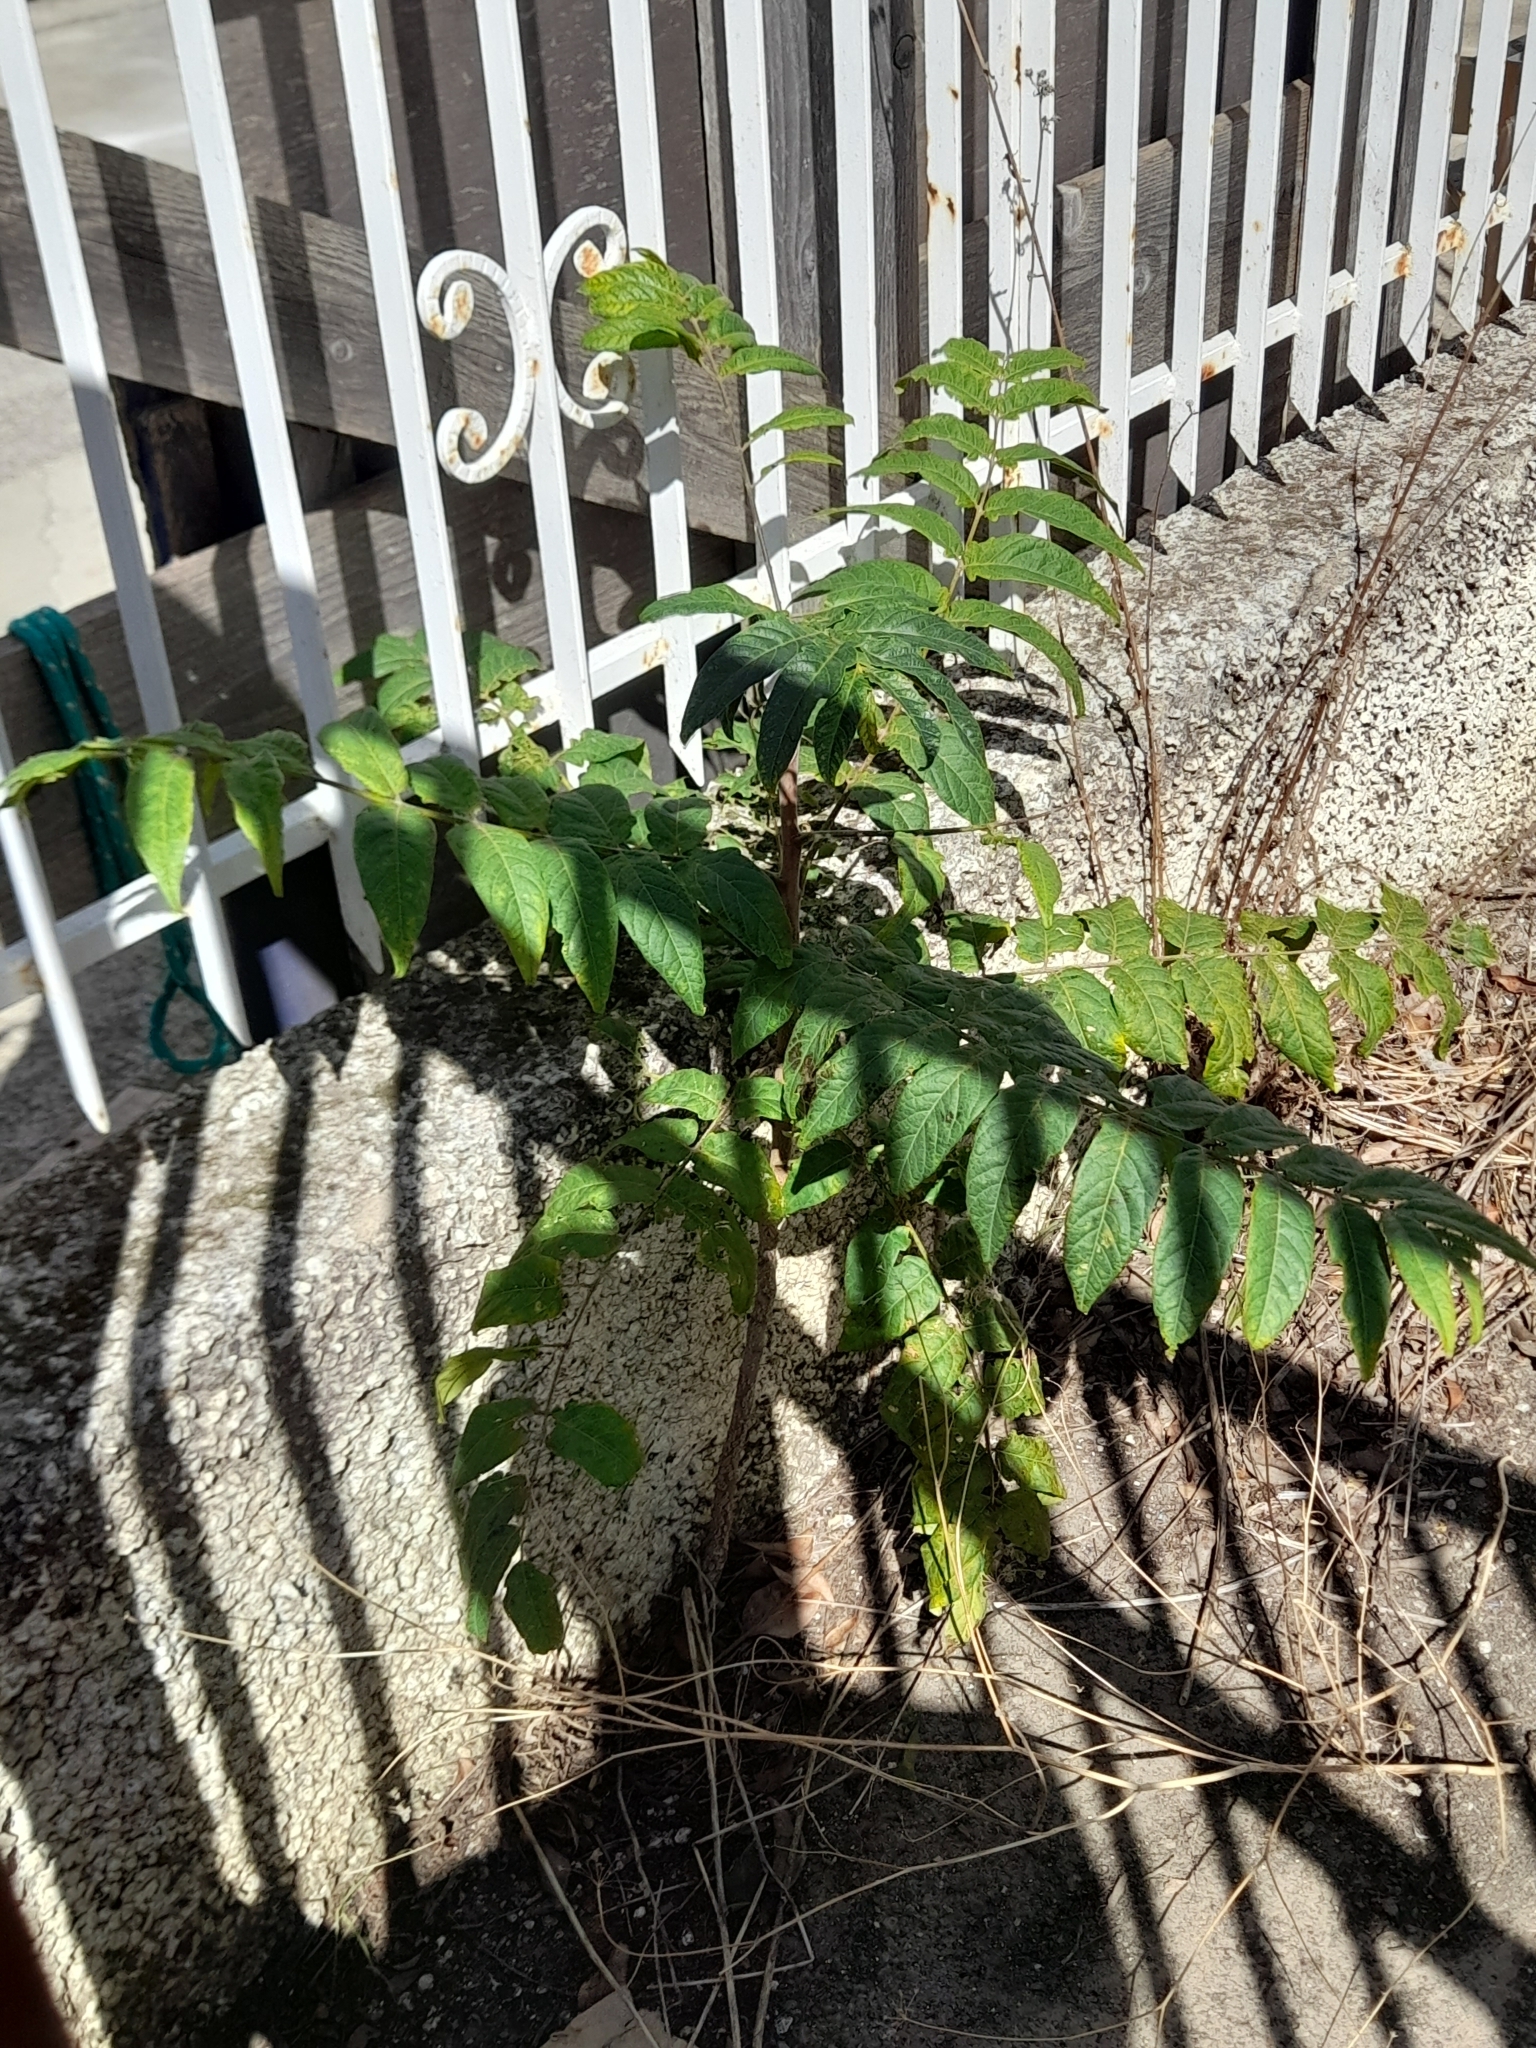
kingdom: Plantae
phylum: Tracheophyta
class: Magnoliopsida
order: Sapindales
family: Simaroubaceae
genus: Ailanthus
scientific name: Ailanthus altissima
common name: Tree-of-heaven
